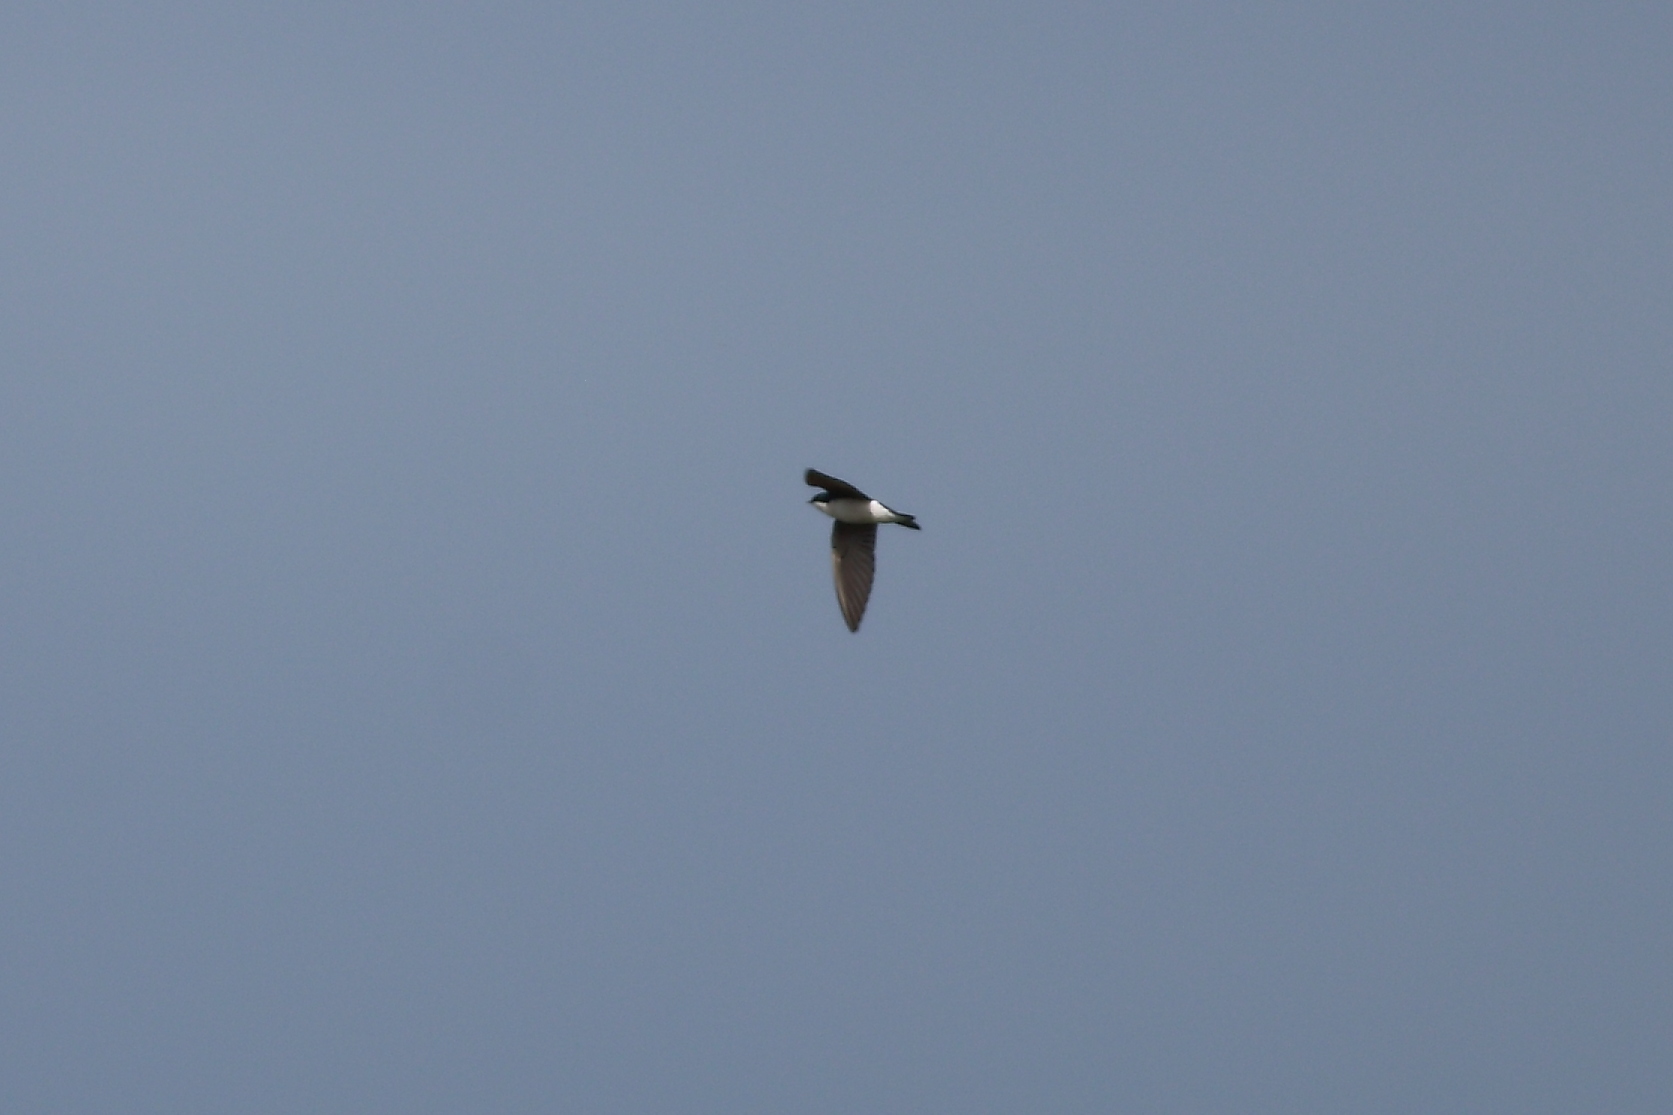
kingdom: Animalia
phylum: Chordata
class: Aves
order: Passeriformes
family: Hirundinidae
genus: Tachycineta
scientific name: Tachycineta bicolor
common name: Tree swallow
